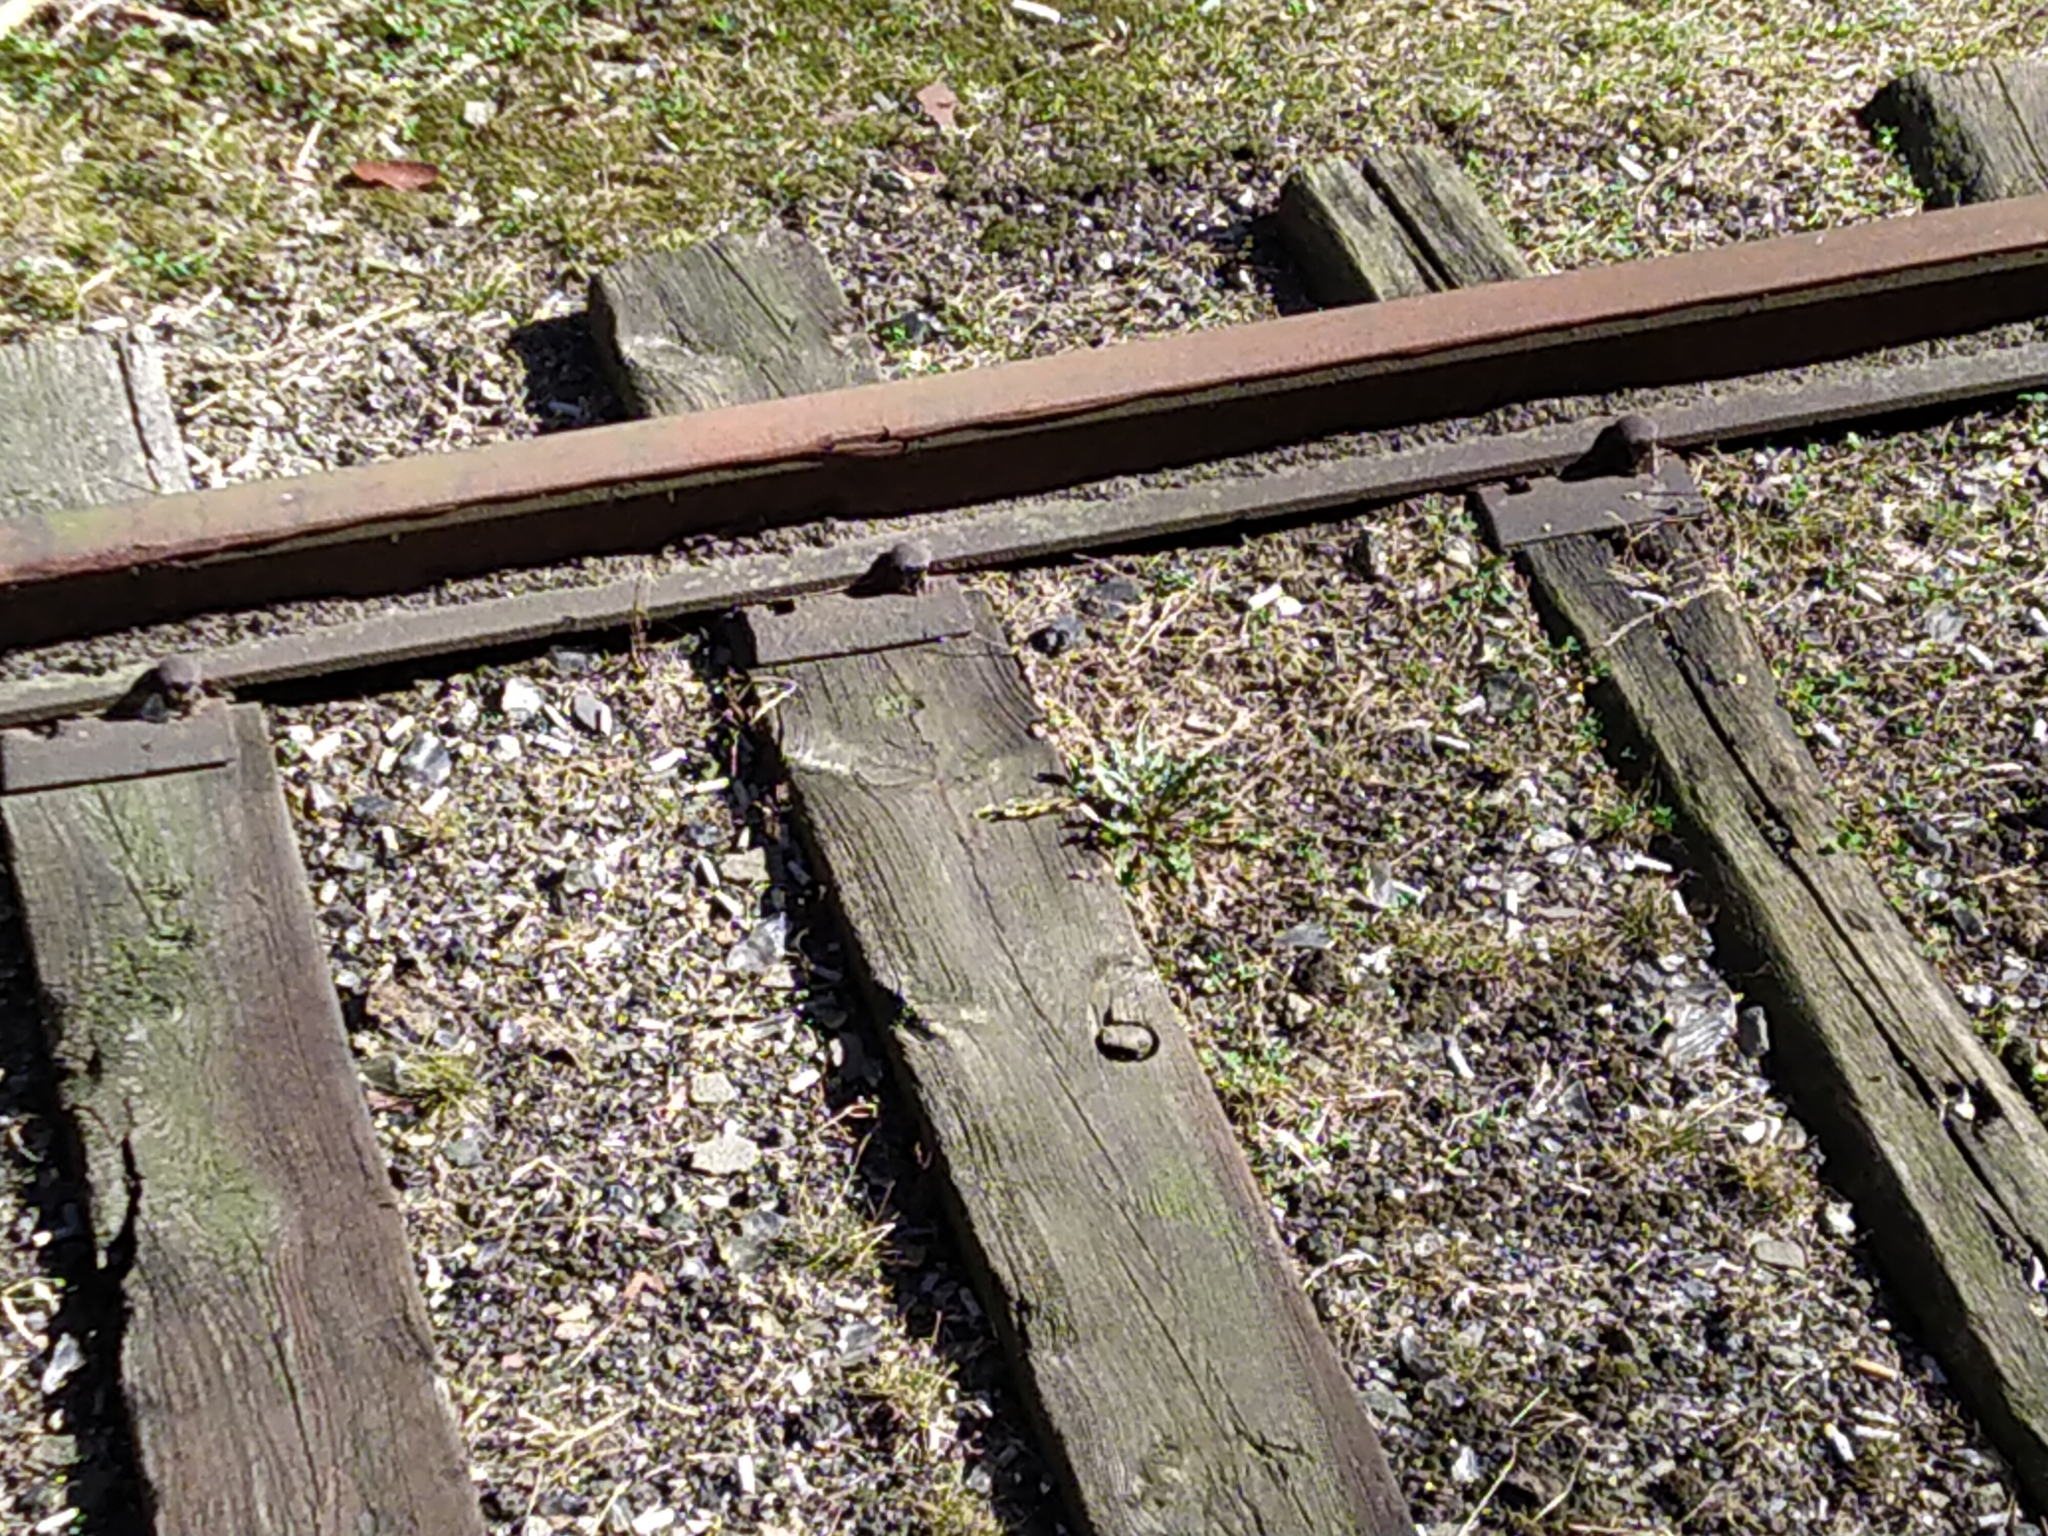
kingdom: Plantae
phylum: Tracheophyta
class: Magnoliopsida
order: Asterales
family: Asteraceae
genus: Taraxacum
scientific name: Taraxacum officinale
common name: Common dandelion
